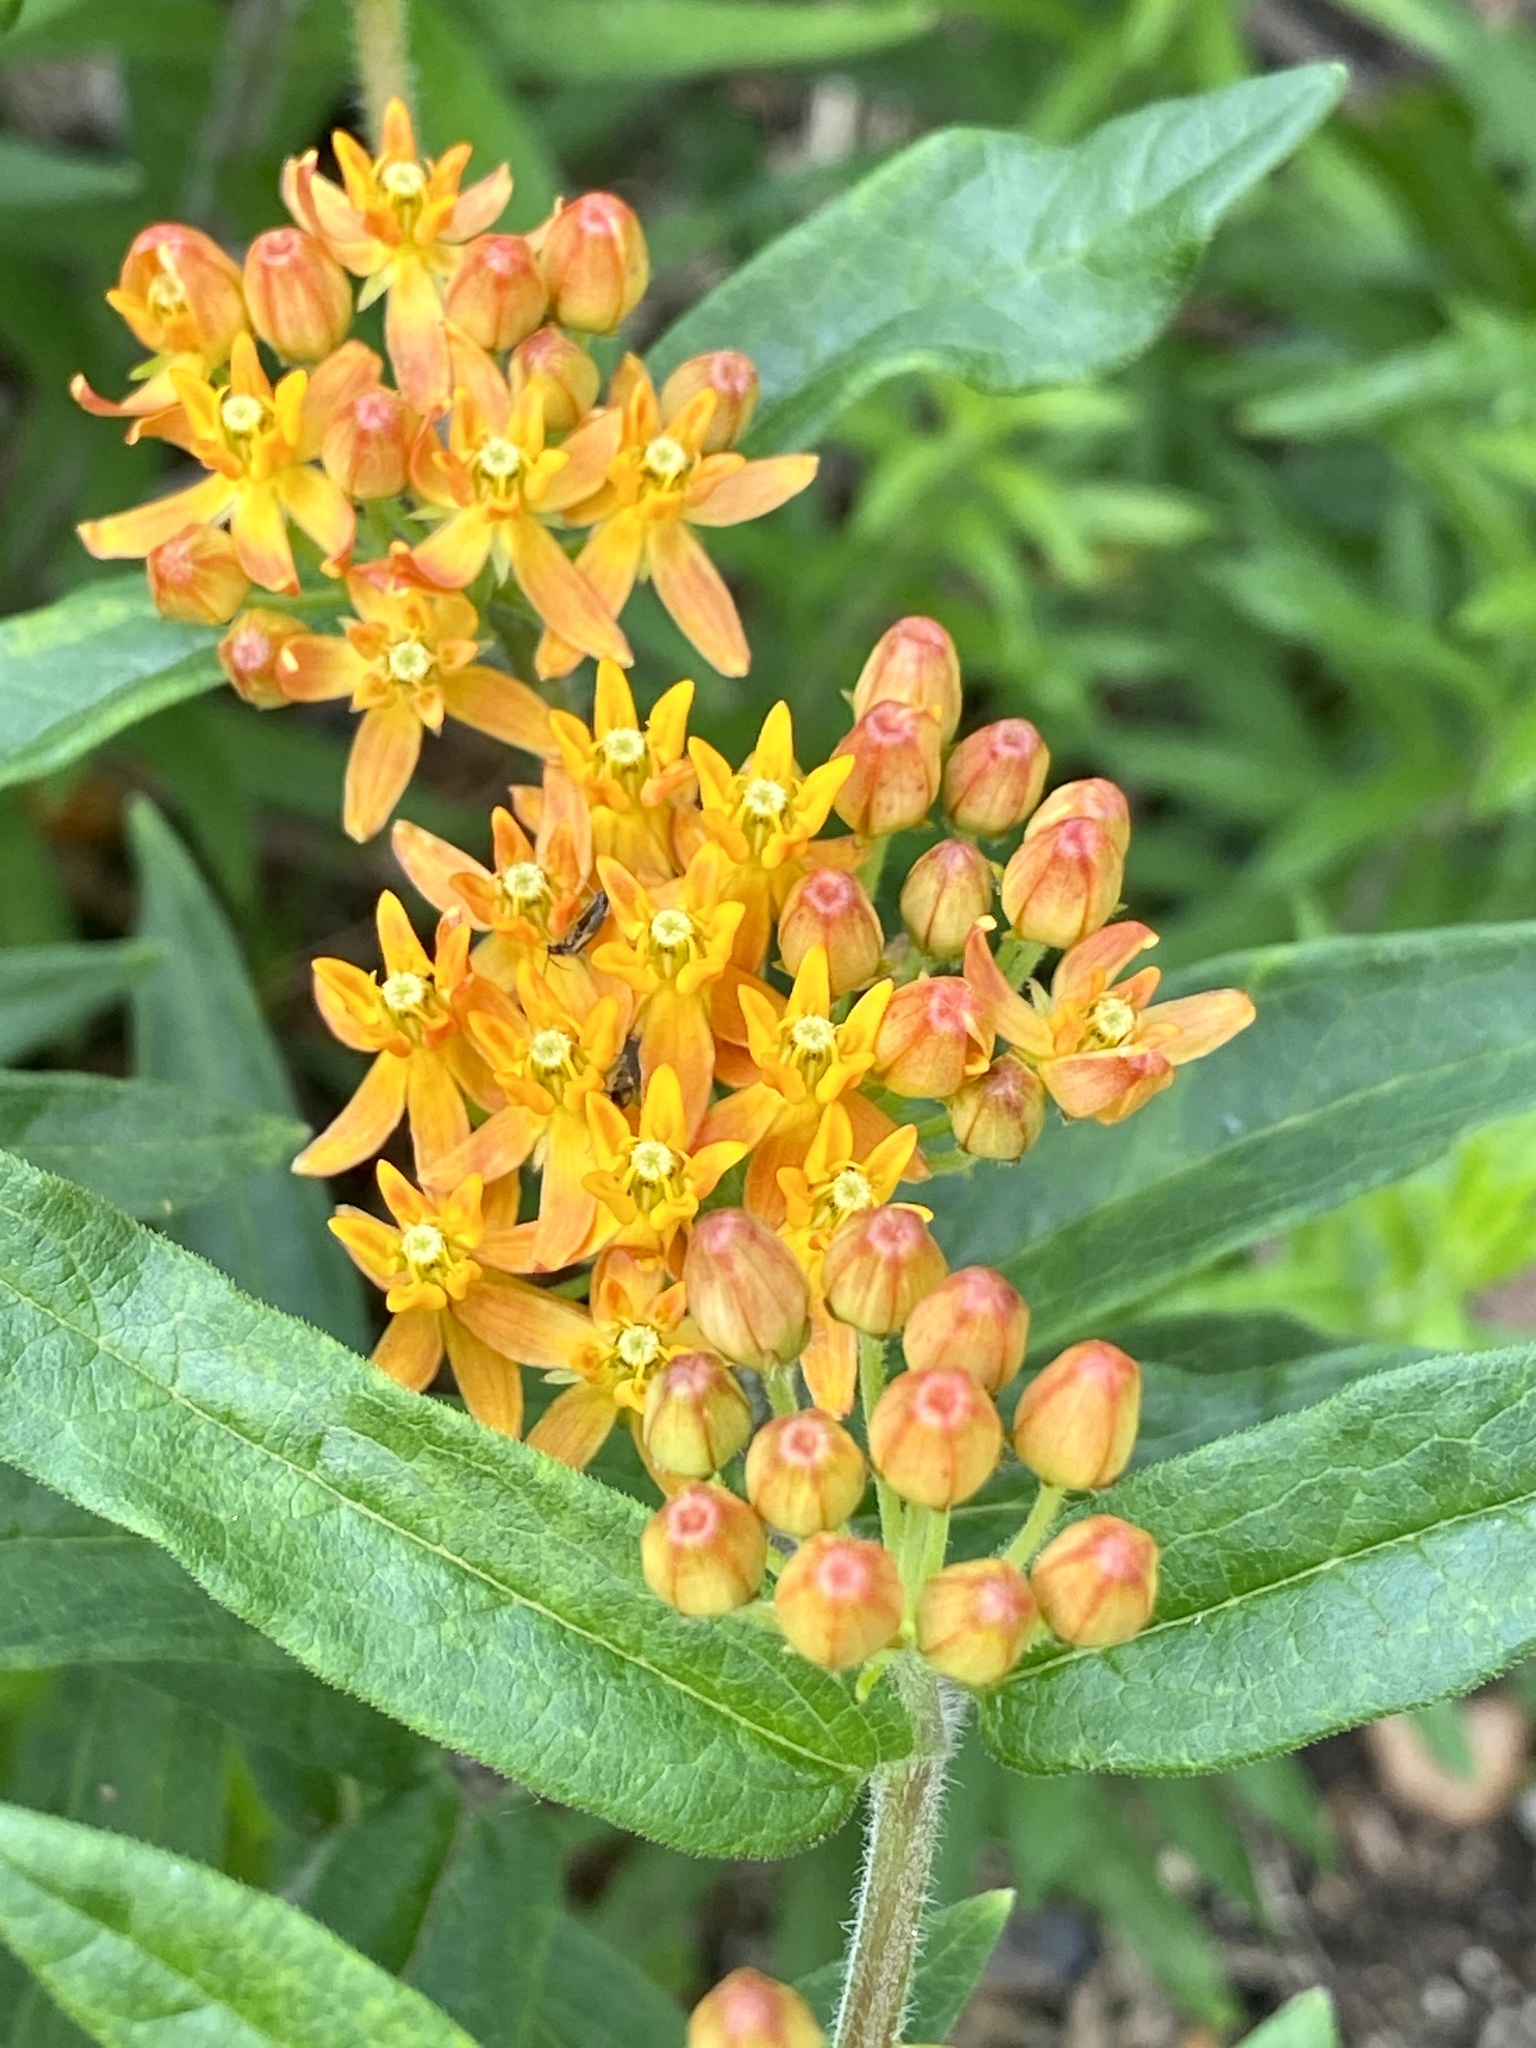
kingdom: Plantae
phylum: Tracheophyta
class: Magnoliopsida
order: Gentianales
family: Apocynaceae
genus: Asclepias
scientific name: Asclepias tuberosa
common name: Butterfly milkweed
